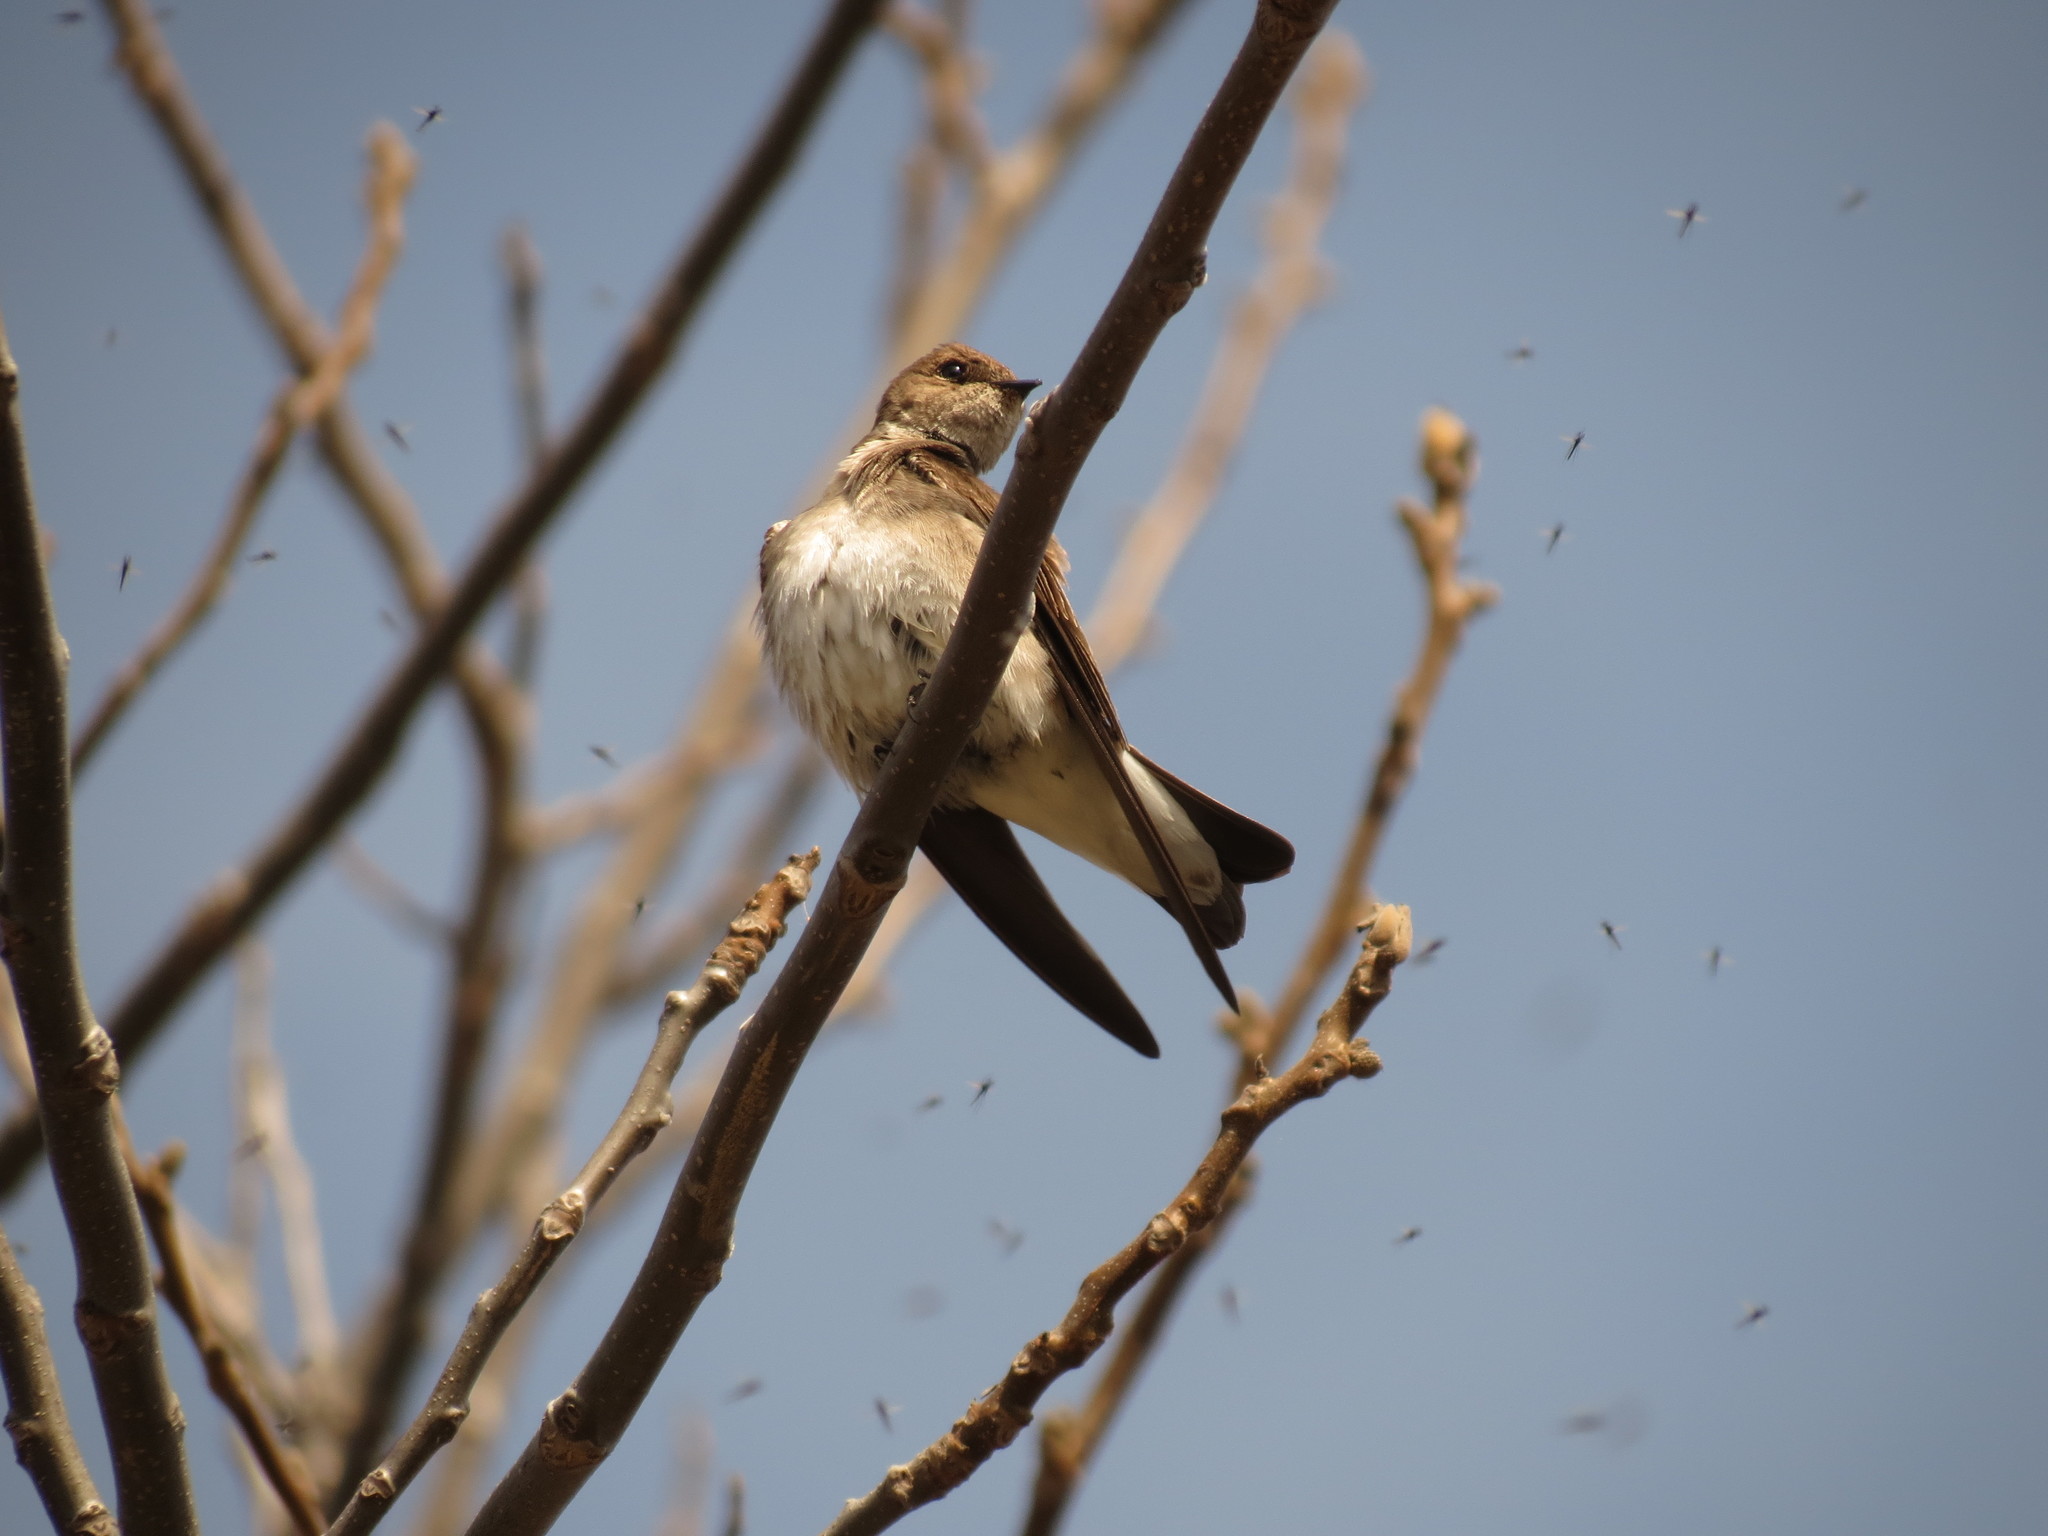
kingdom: Animalia
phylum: Chordata
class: Aves
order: Passeriformes
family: Hirundinidae
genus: Stelgidopteryx
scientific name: Stelgidopteryx serripennis
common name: Northern rough-winged swallow
